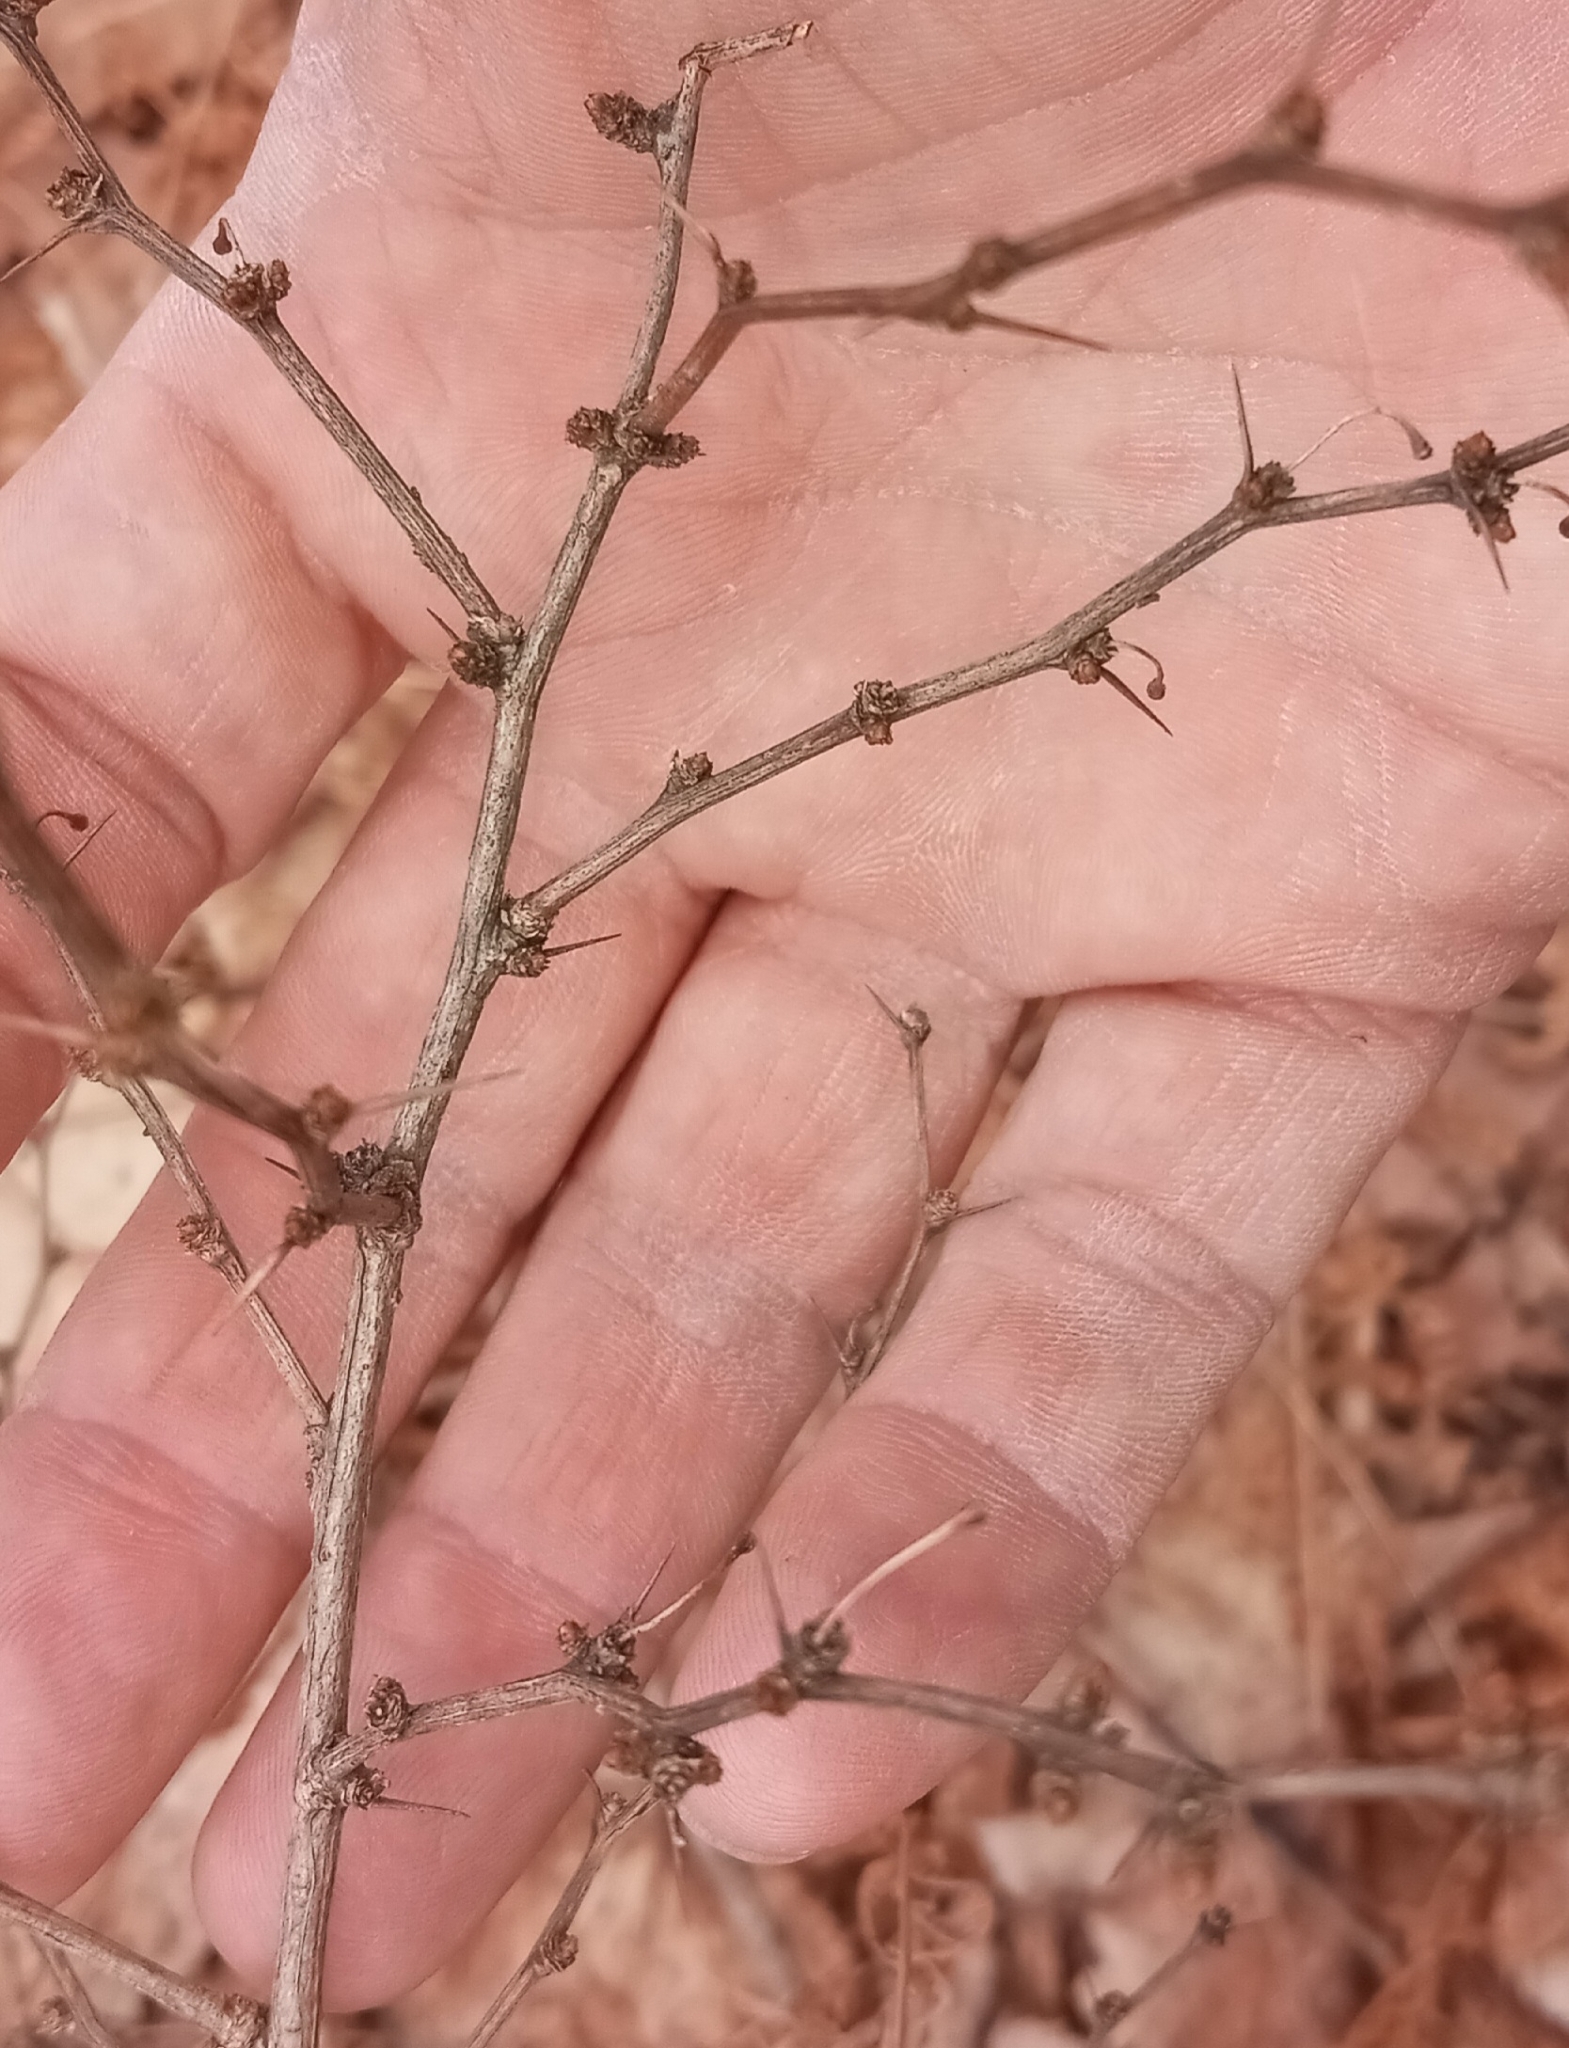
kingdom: Plantae
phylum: Tracheophyta
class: Magnoliopsida
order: Ranunculales
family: Berberidaceae
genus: Berberis
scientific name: Berberis thunbergii
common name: Japanese barberry
